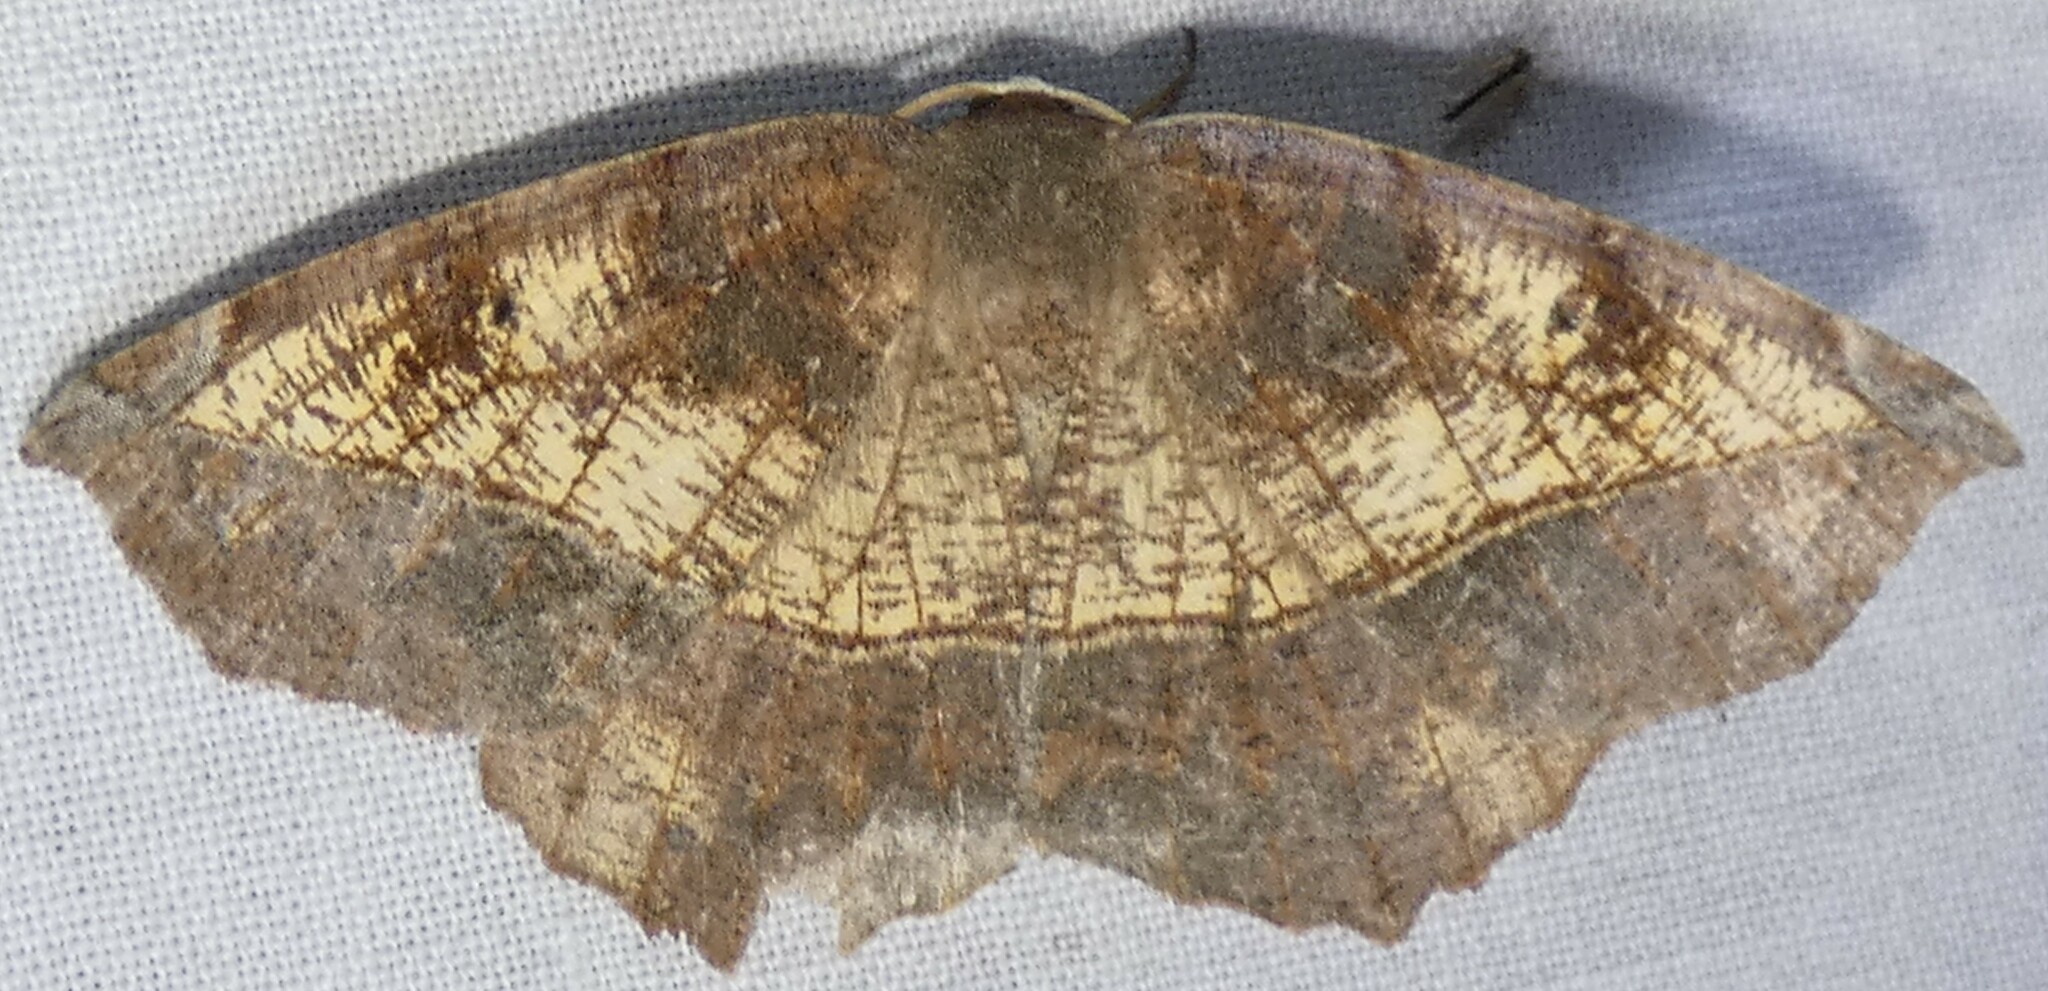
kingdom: Animalia
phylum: Arthropoda
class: Insecta
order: Lepidoptera
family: Geometridae
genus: Eutrapela
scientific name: Eutrapela clemataria
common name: Curved-toothed geometer
